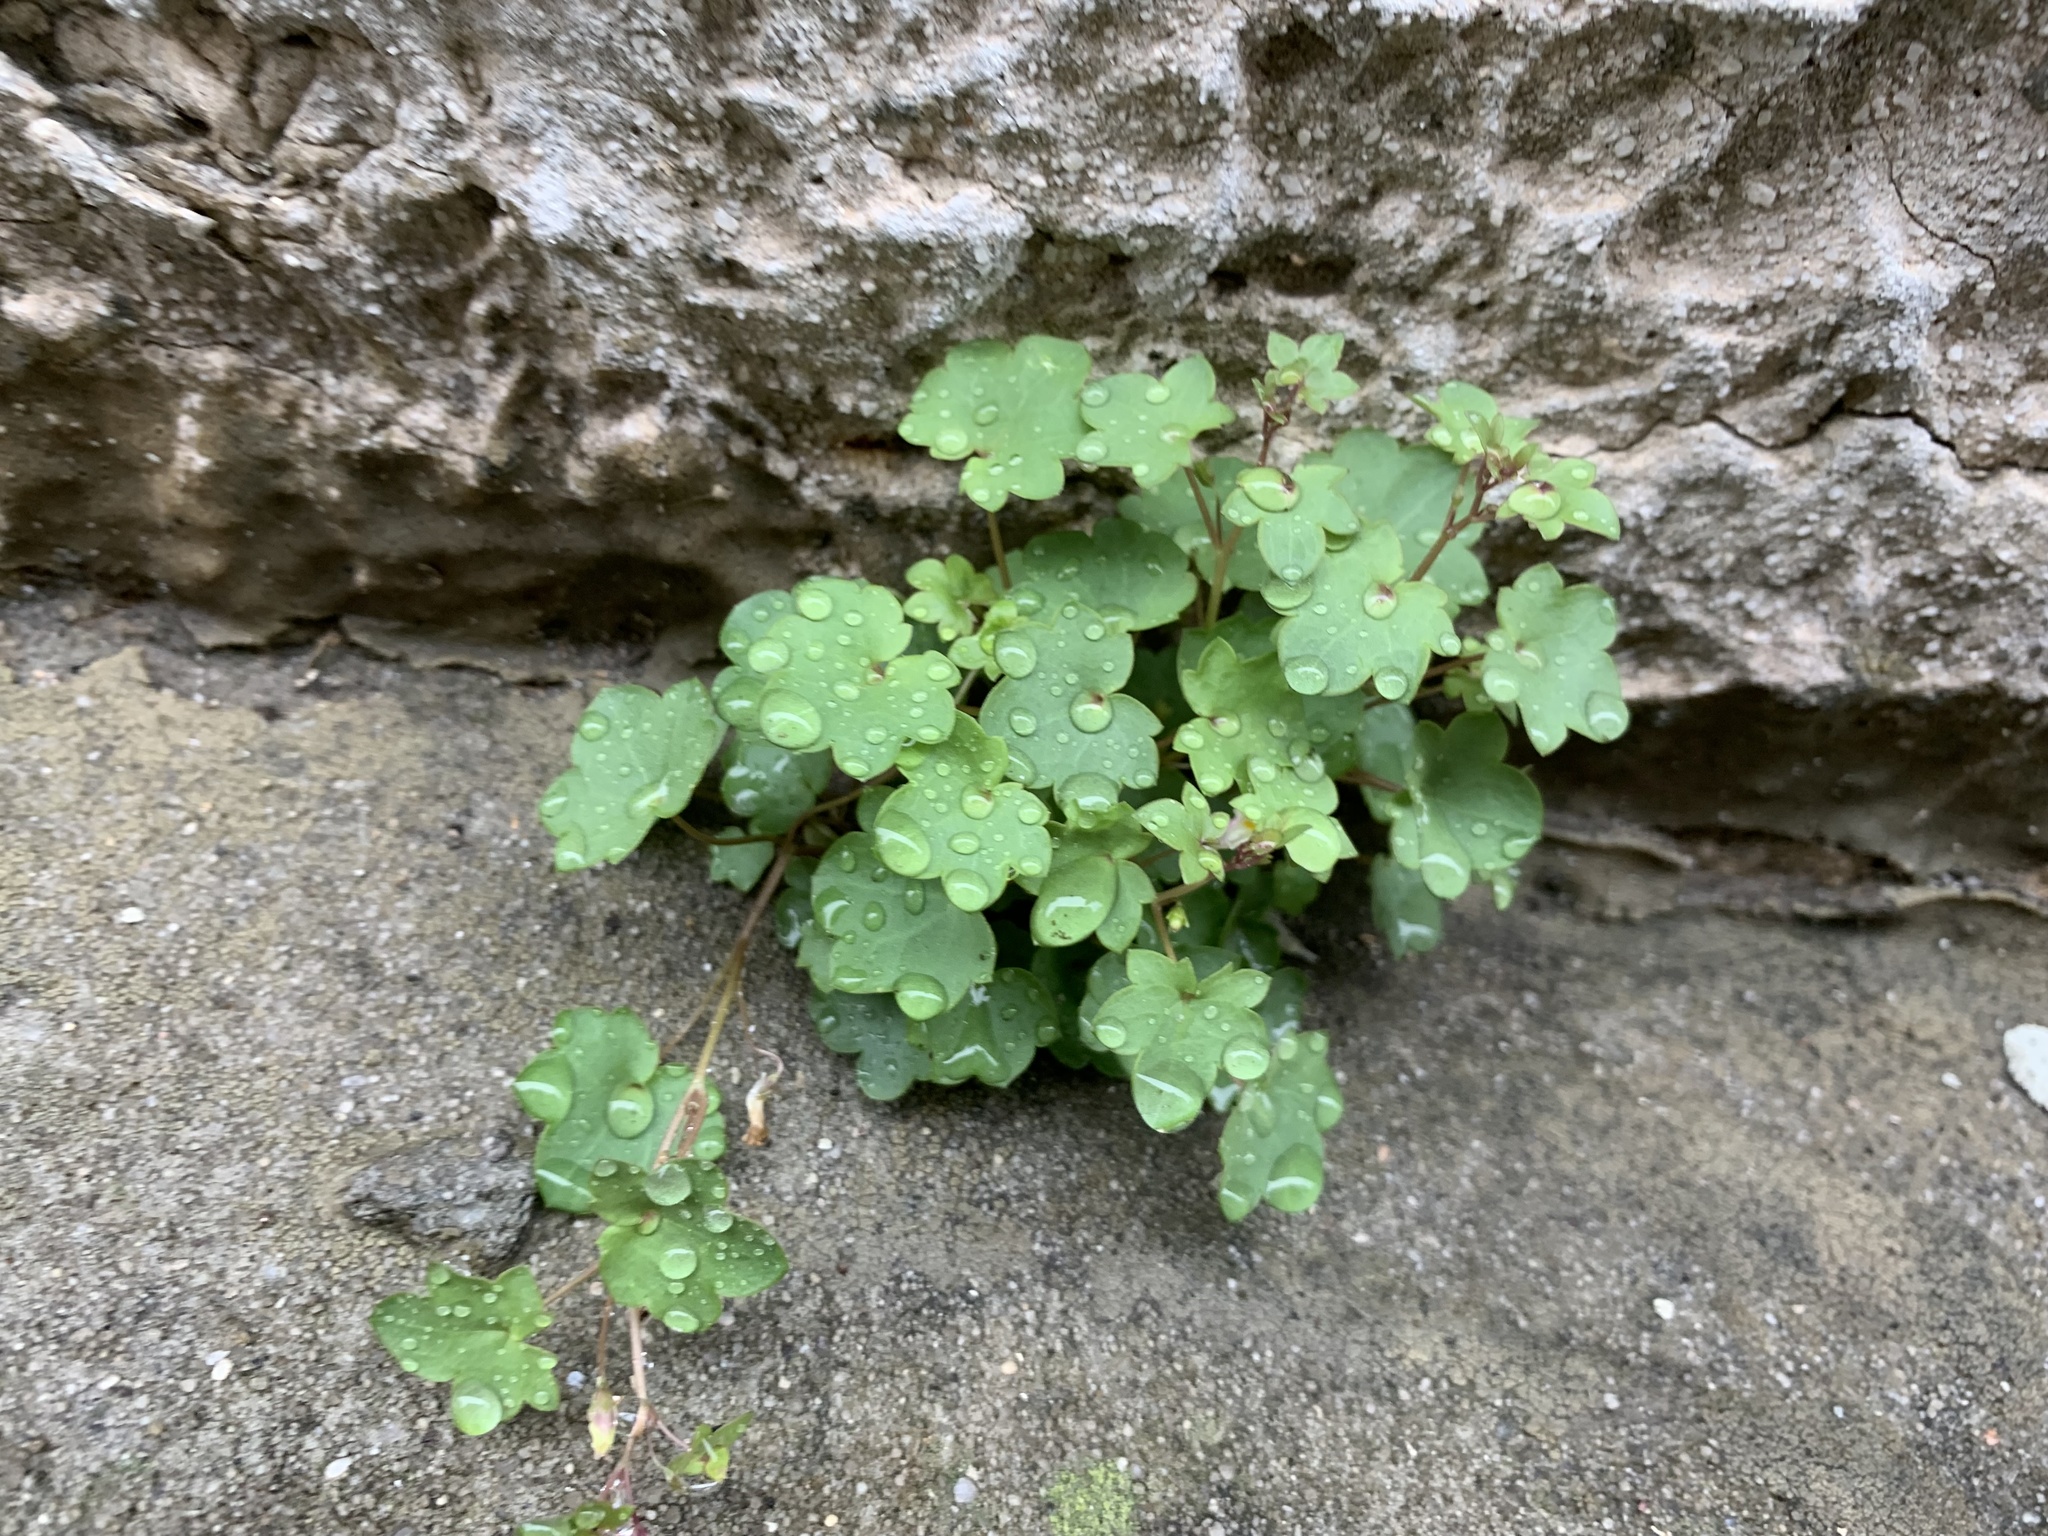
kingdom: Plantae
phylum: Tracheophyta
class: Magnoliopsida
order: Lamiales
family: Plantaginaceae
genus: Cymbalaria
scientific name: Cymbalaria muralis
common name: Ivy-leaved toadflax
